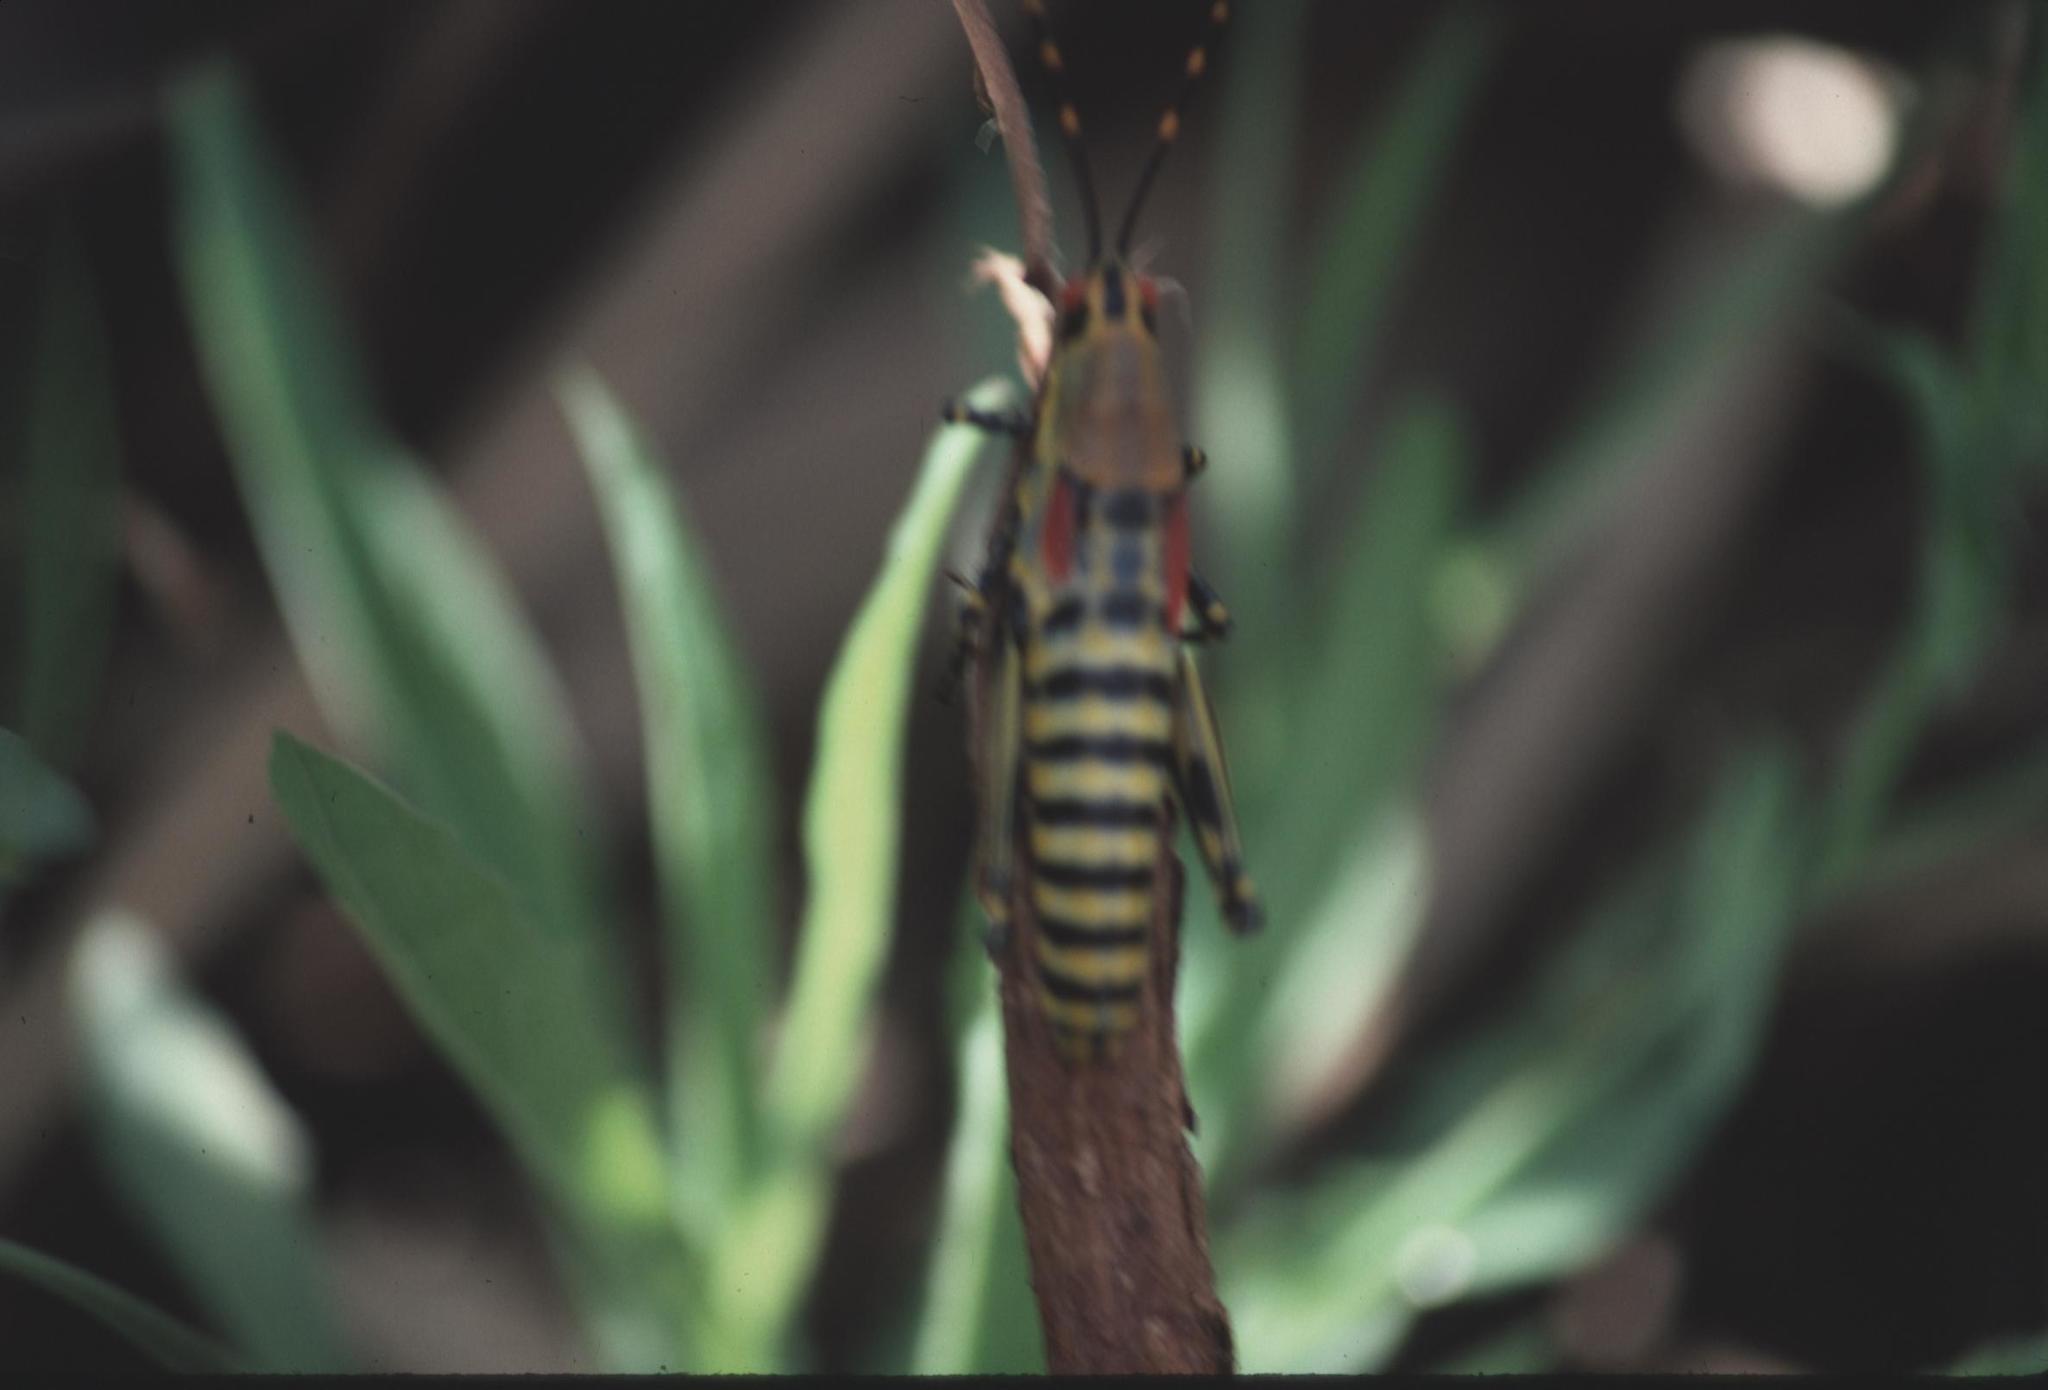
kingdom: Animalia
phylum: Arthropoda
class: Insecta
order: Orthoptera
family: Pyrgomorphidae
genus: Zonocerus
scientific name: Zonocerus elegans
